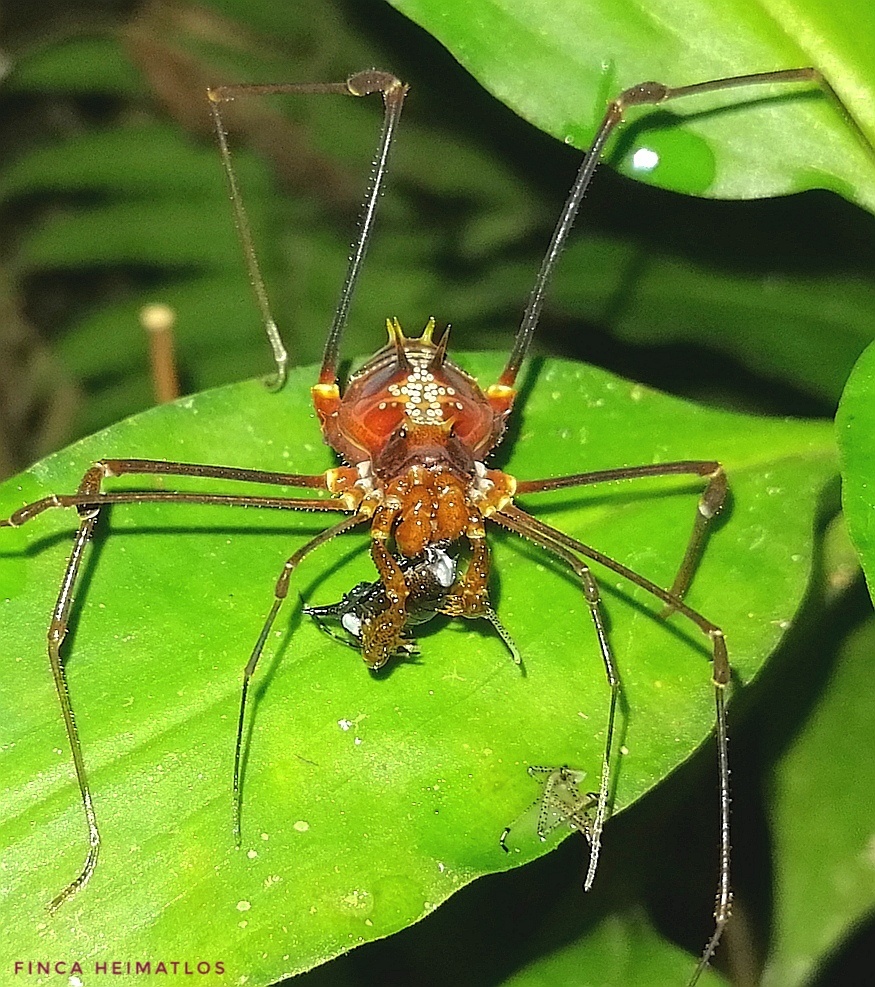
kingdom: Animalia
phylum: Arthropoda
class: Arachnida
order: Opiliones
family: Cranaidae
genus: Phareicranaus
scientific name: Phareicranaus hermosa
